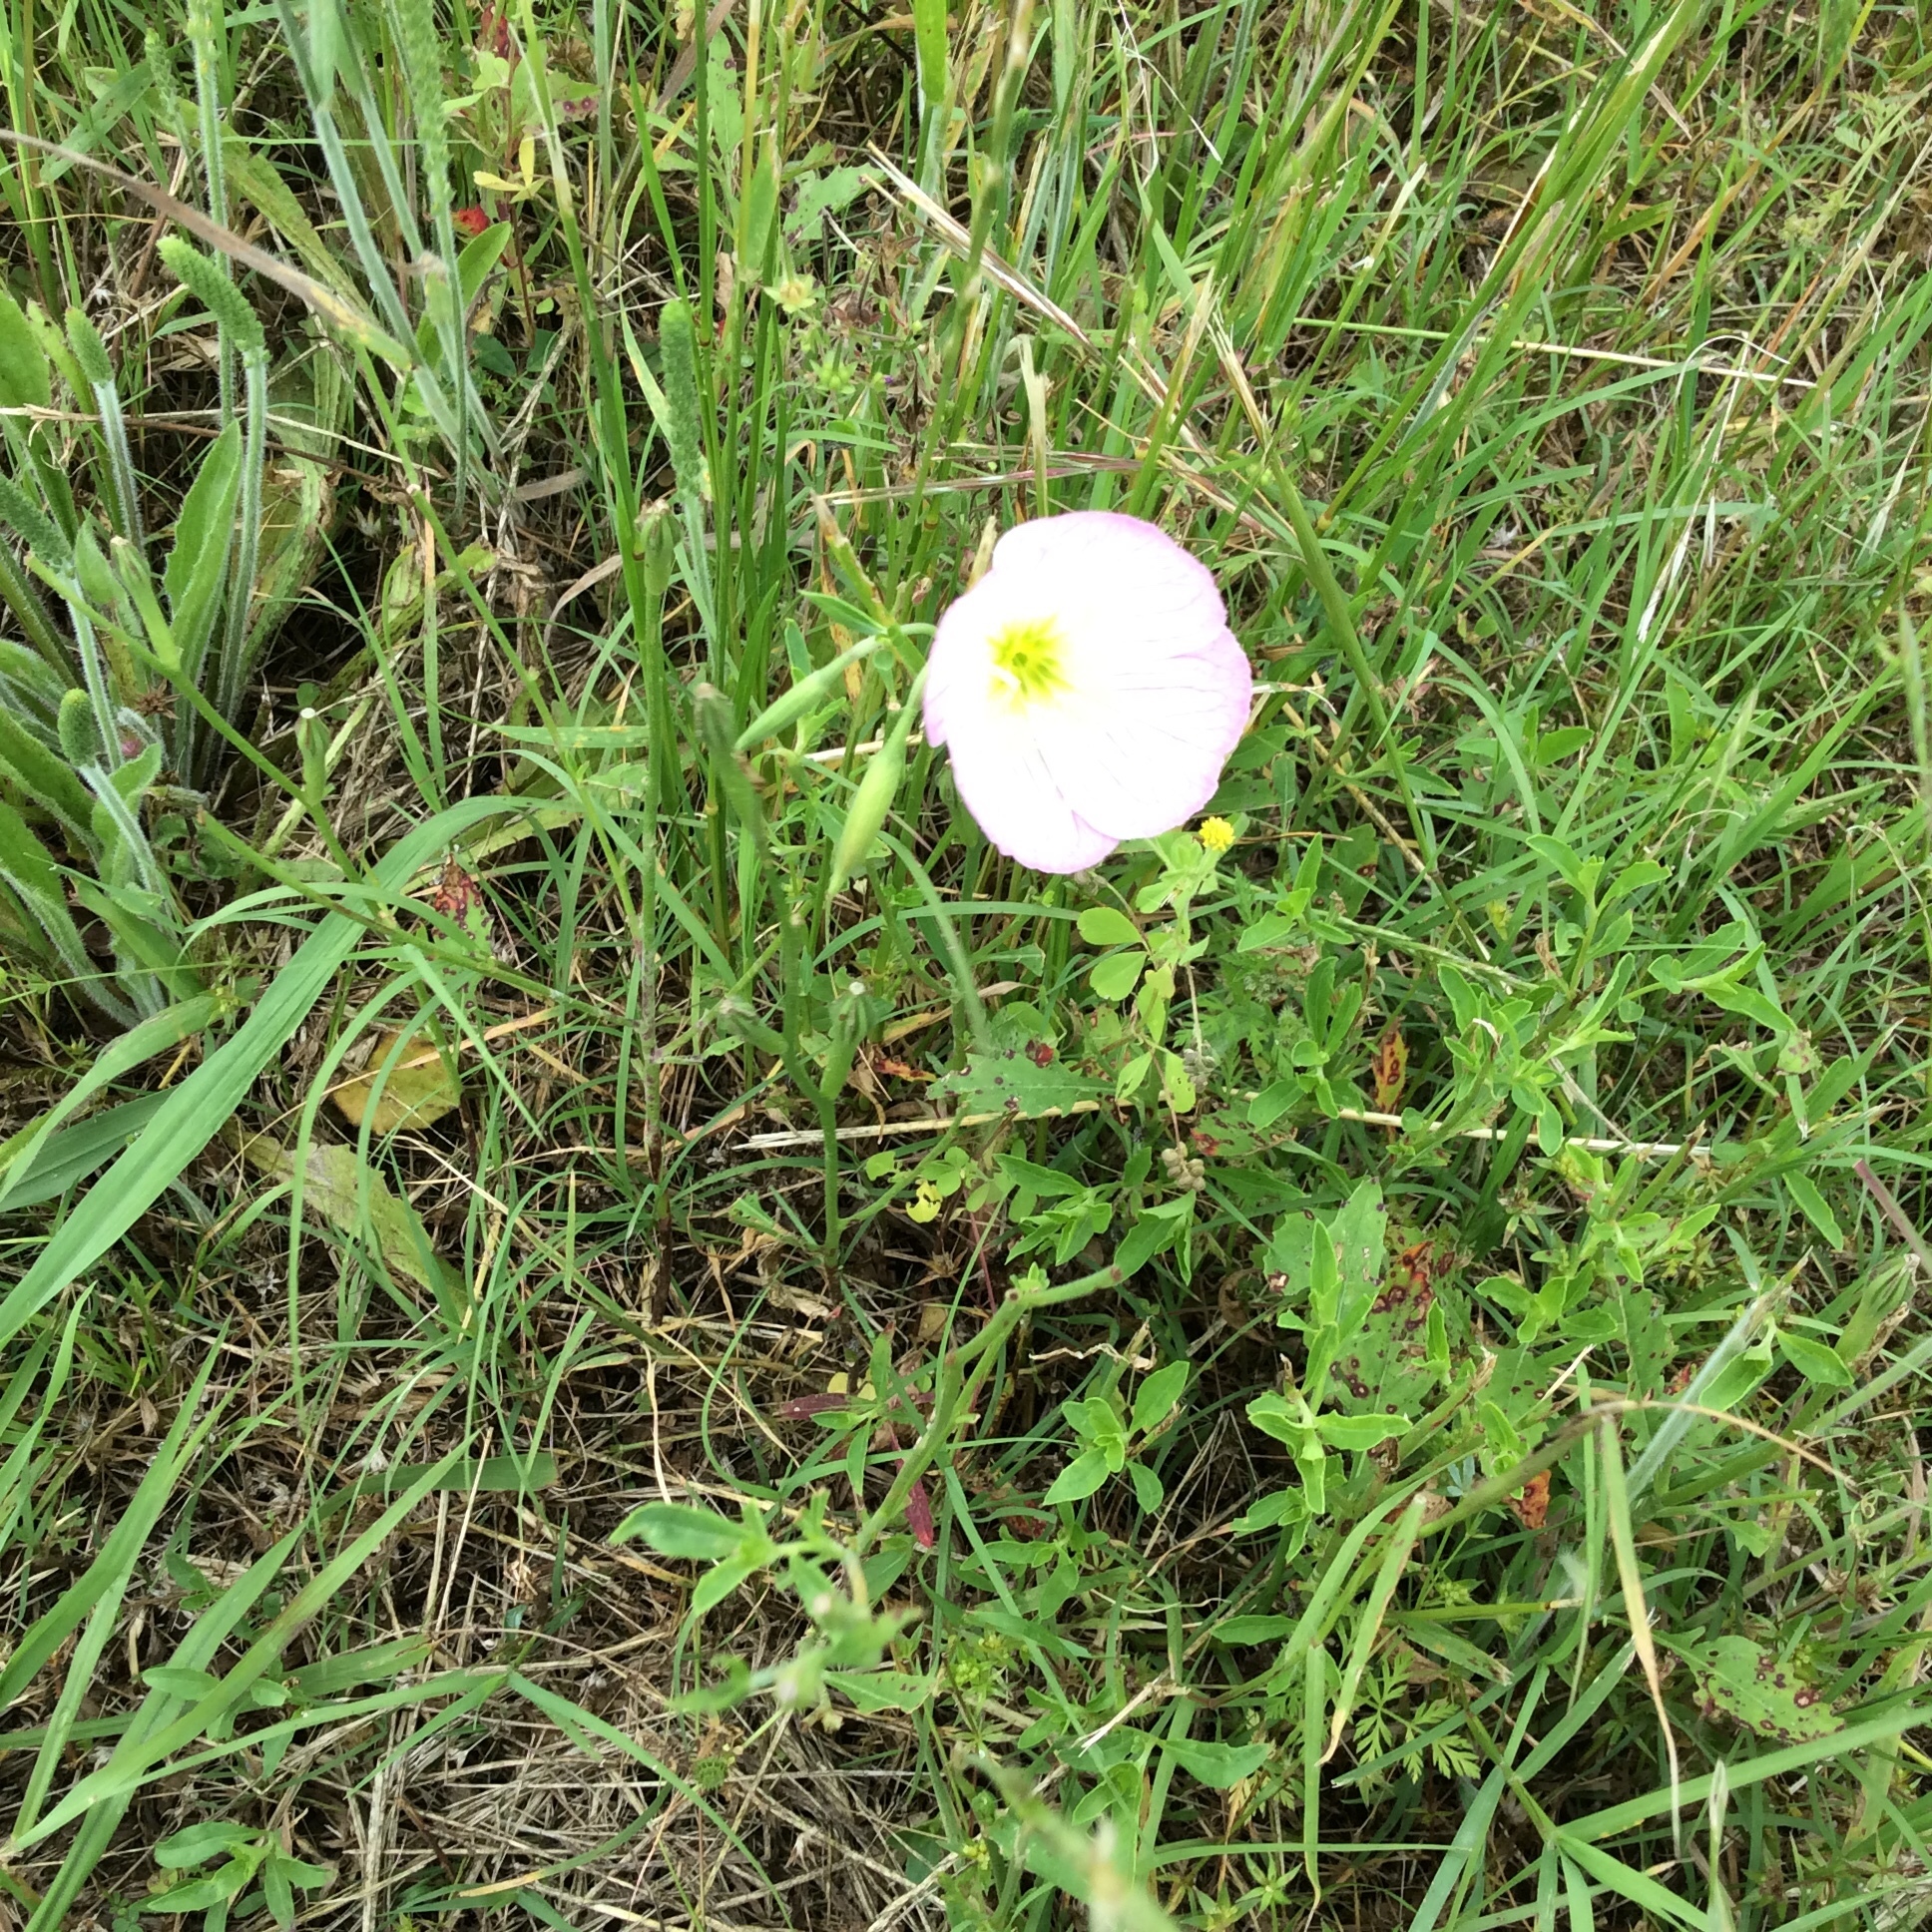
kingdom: Plantae
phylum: Tracheophyta
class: Magnoliopsida
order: Myrtales
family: Onagraceae
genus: Oenothera
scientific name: Oenothera speciosa
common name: White evening-primrose
